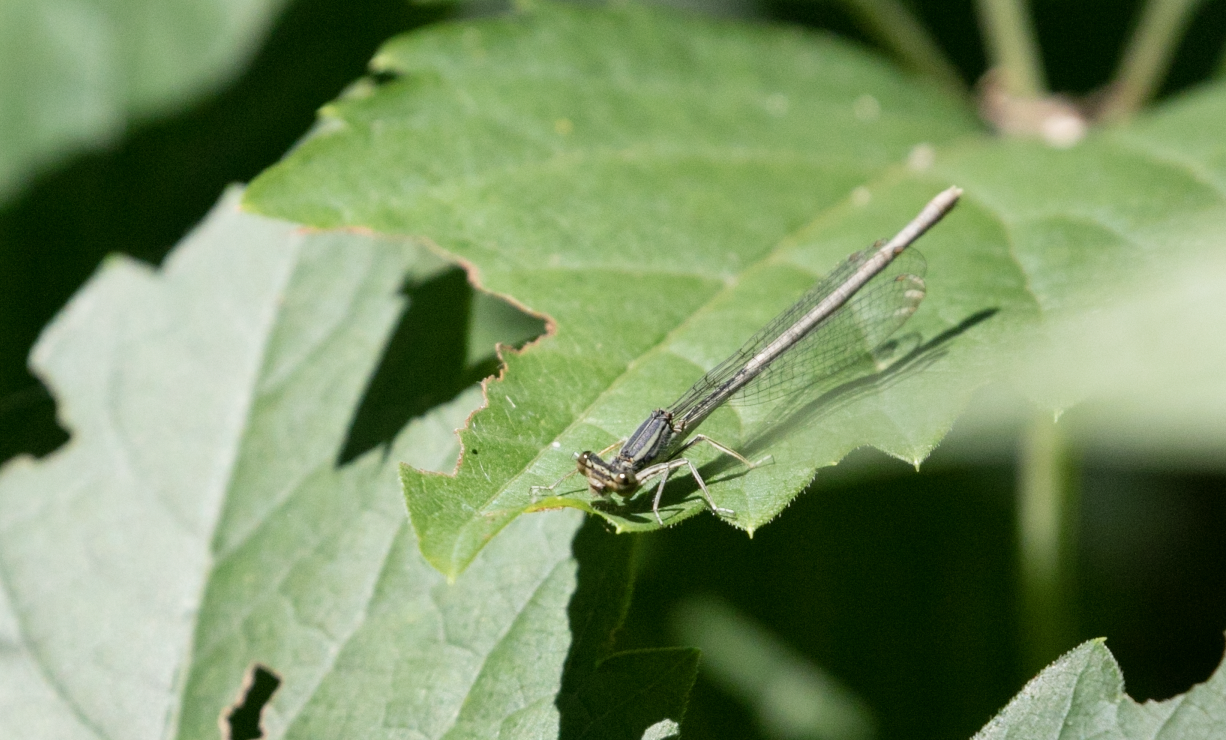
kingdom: Animalia
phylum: Arthropoda
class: Insecta
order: Odonata
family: Platycnemididae
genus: Platycnemis
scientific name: Platycnemis pennipes
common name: White-legged damselfly
